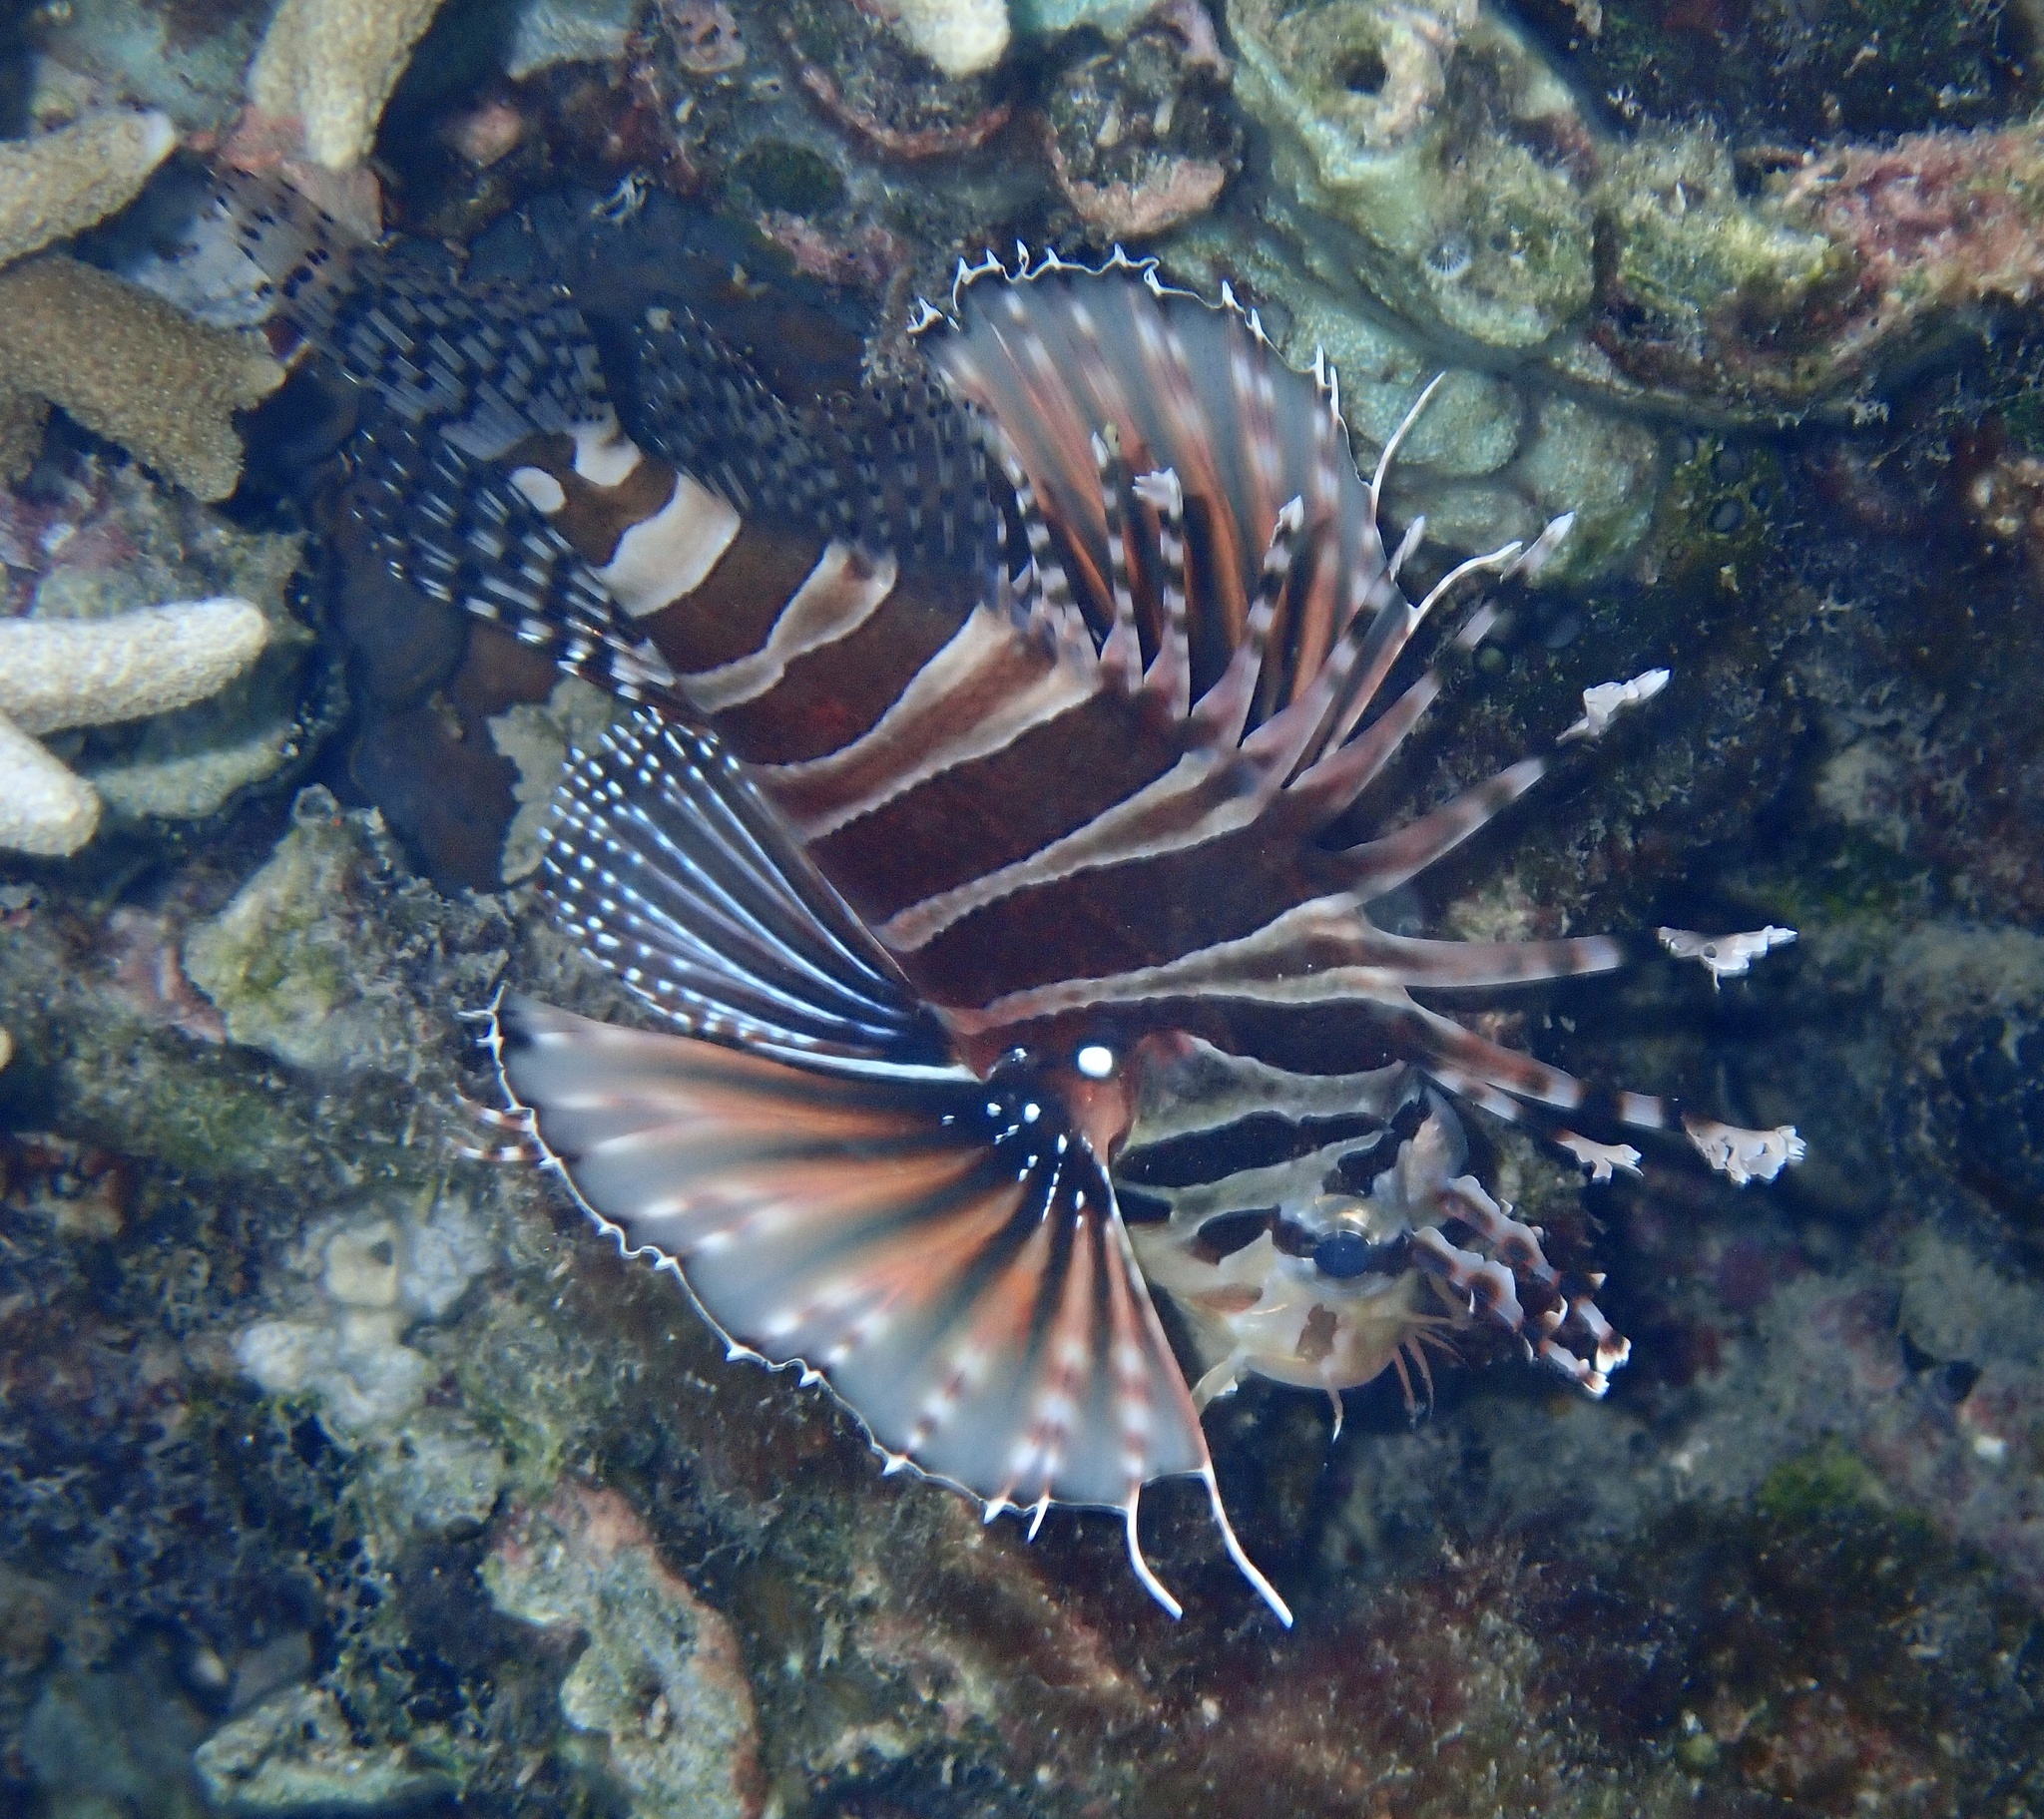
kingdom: Animalia
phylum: Chordata
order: Scorpaeniformes
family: Scorpaenidae
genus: Dendrochirus
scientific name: Dendrochirus zebra
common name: Zebra lionfish
